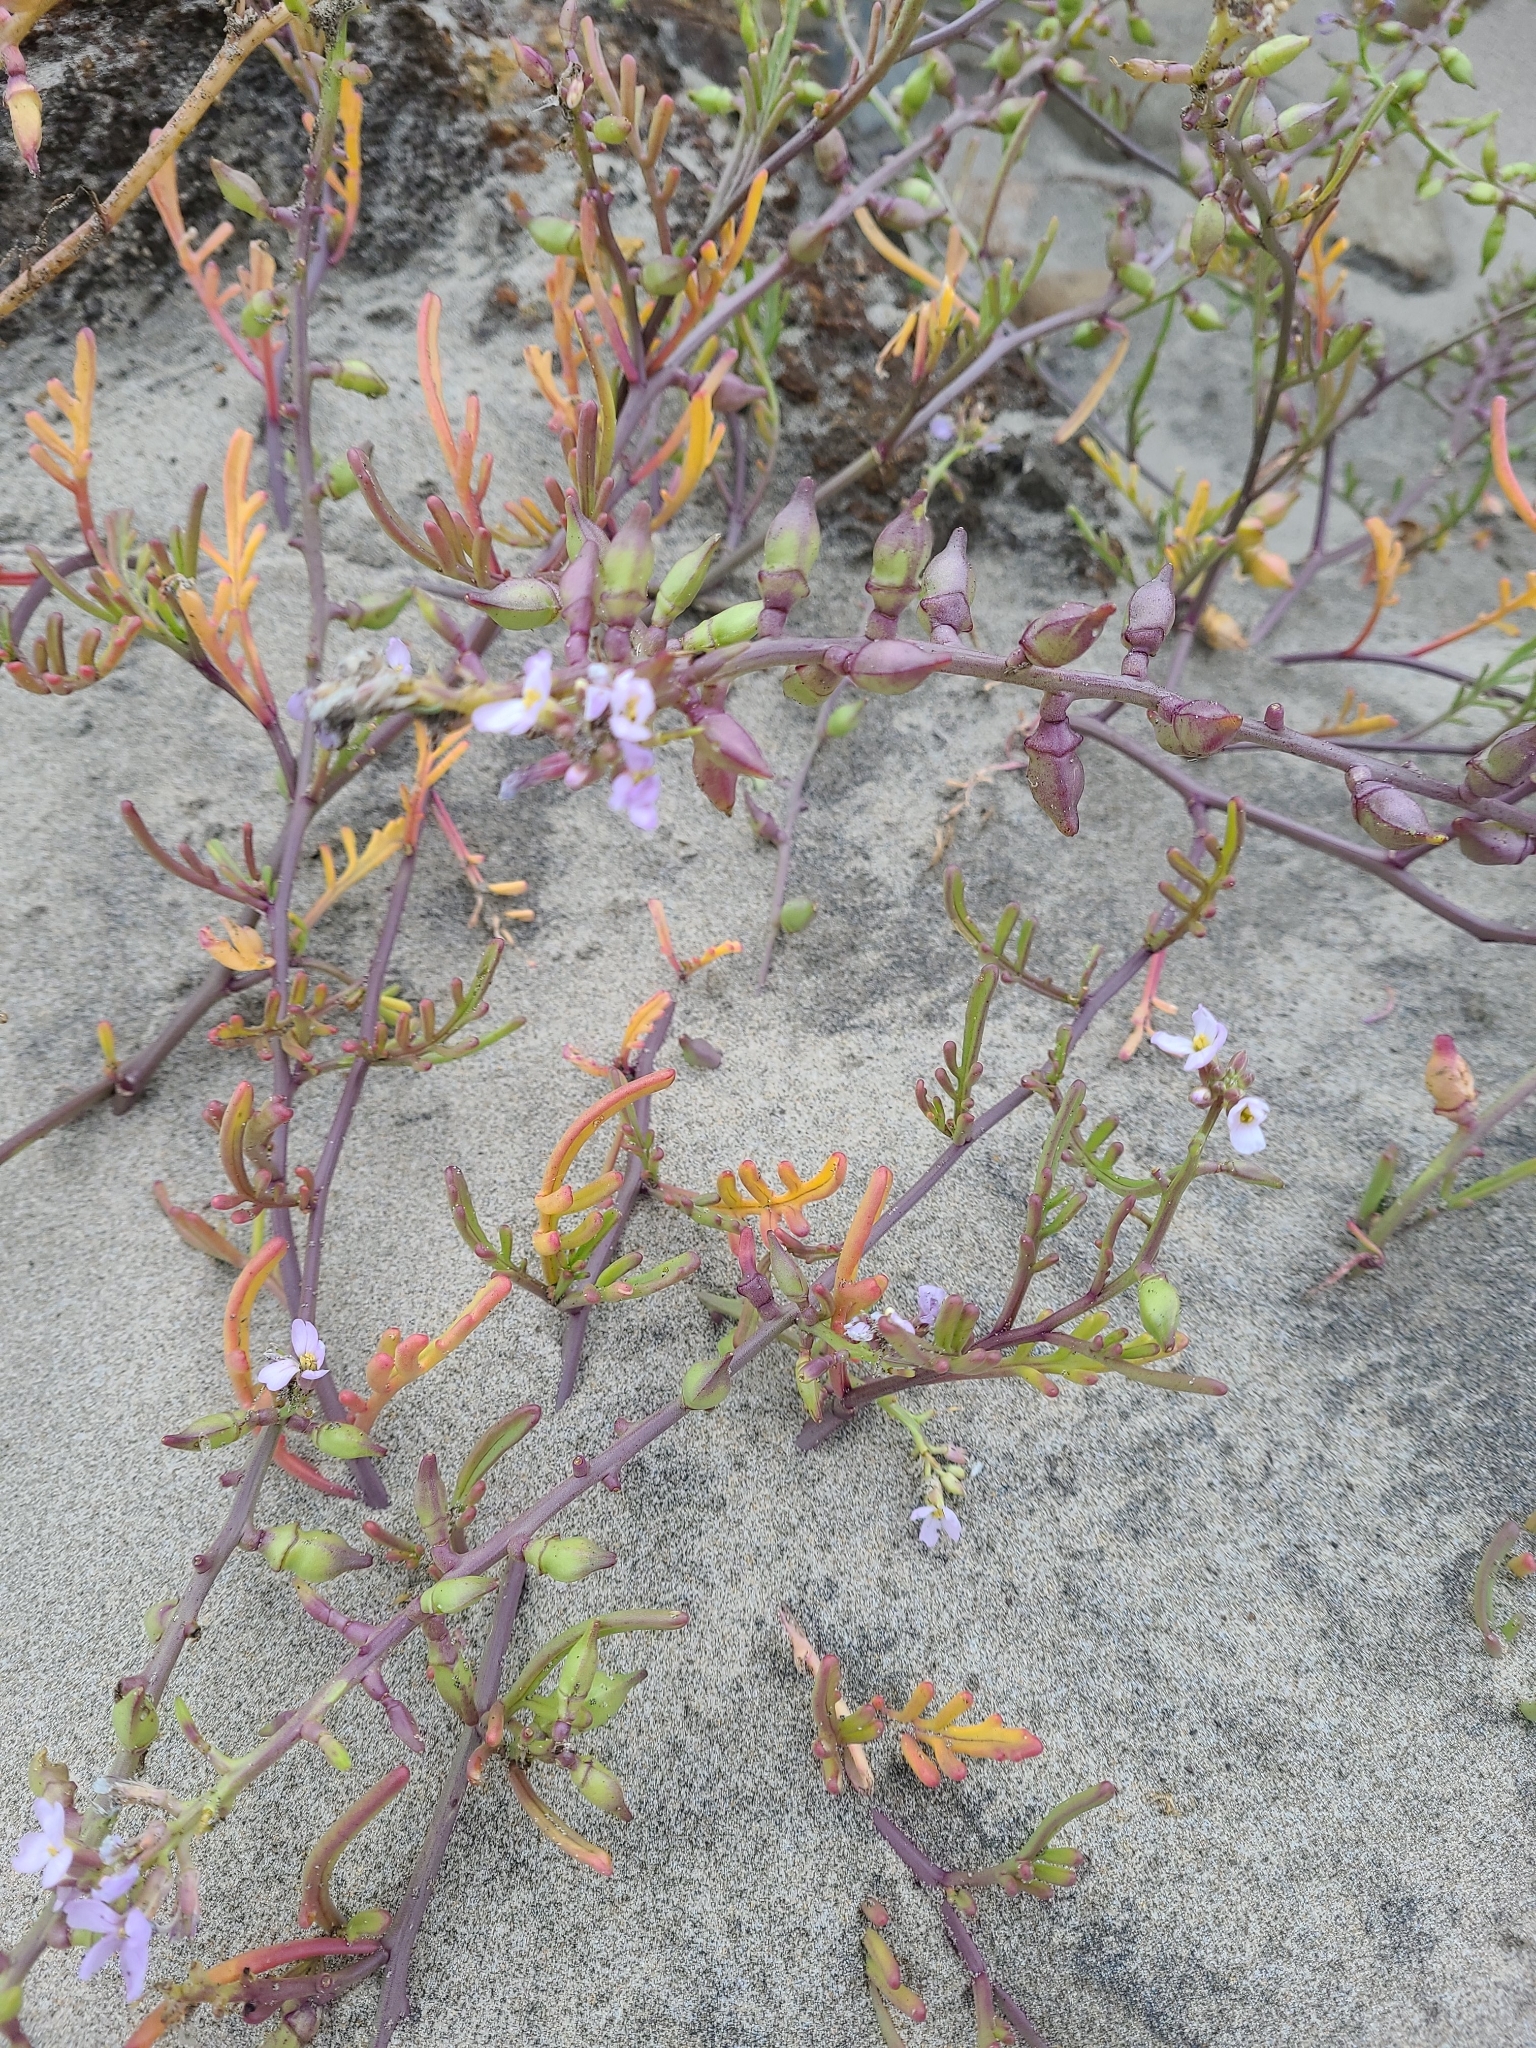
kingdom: Plantae
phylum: Tracheophyta
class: Magnoliopsida
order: Brassicales
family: Brassicaceae
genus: Cakile
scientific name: Cakile maritima
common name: Sea rocket
